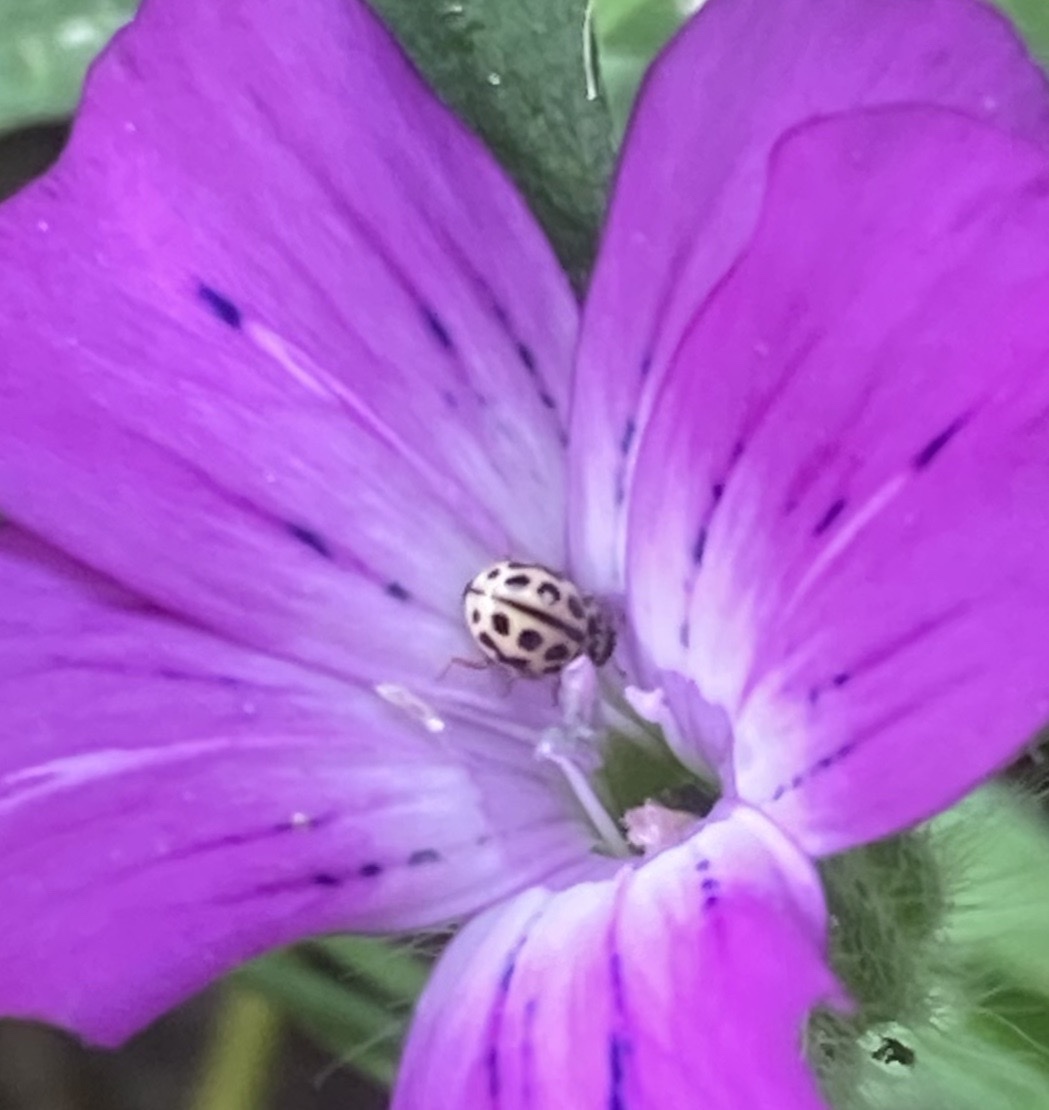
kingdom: Animalia
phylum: Arthropoda
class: Insecta
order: Coleoptera
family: Coccinellidae
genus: Tytthaspis
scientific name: Tytthaspis sedecimpunctata
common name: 16-spot ladybird
